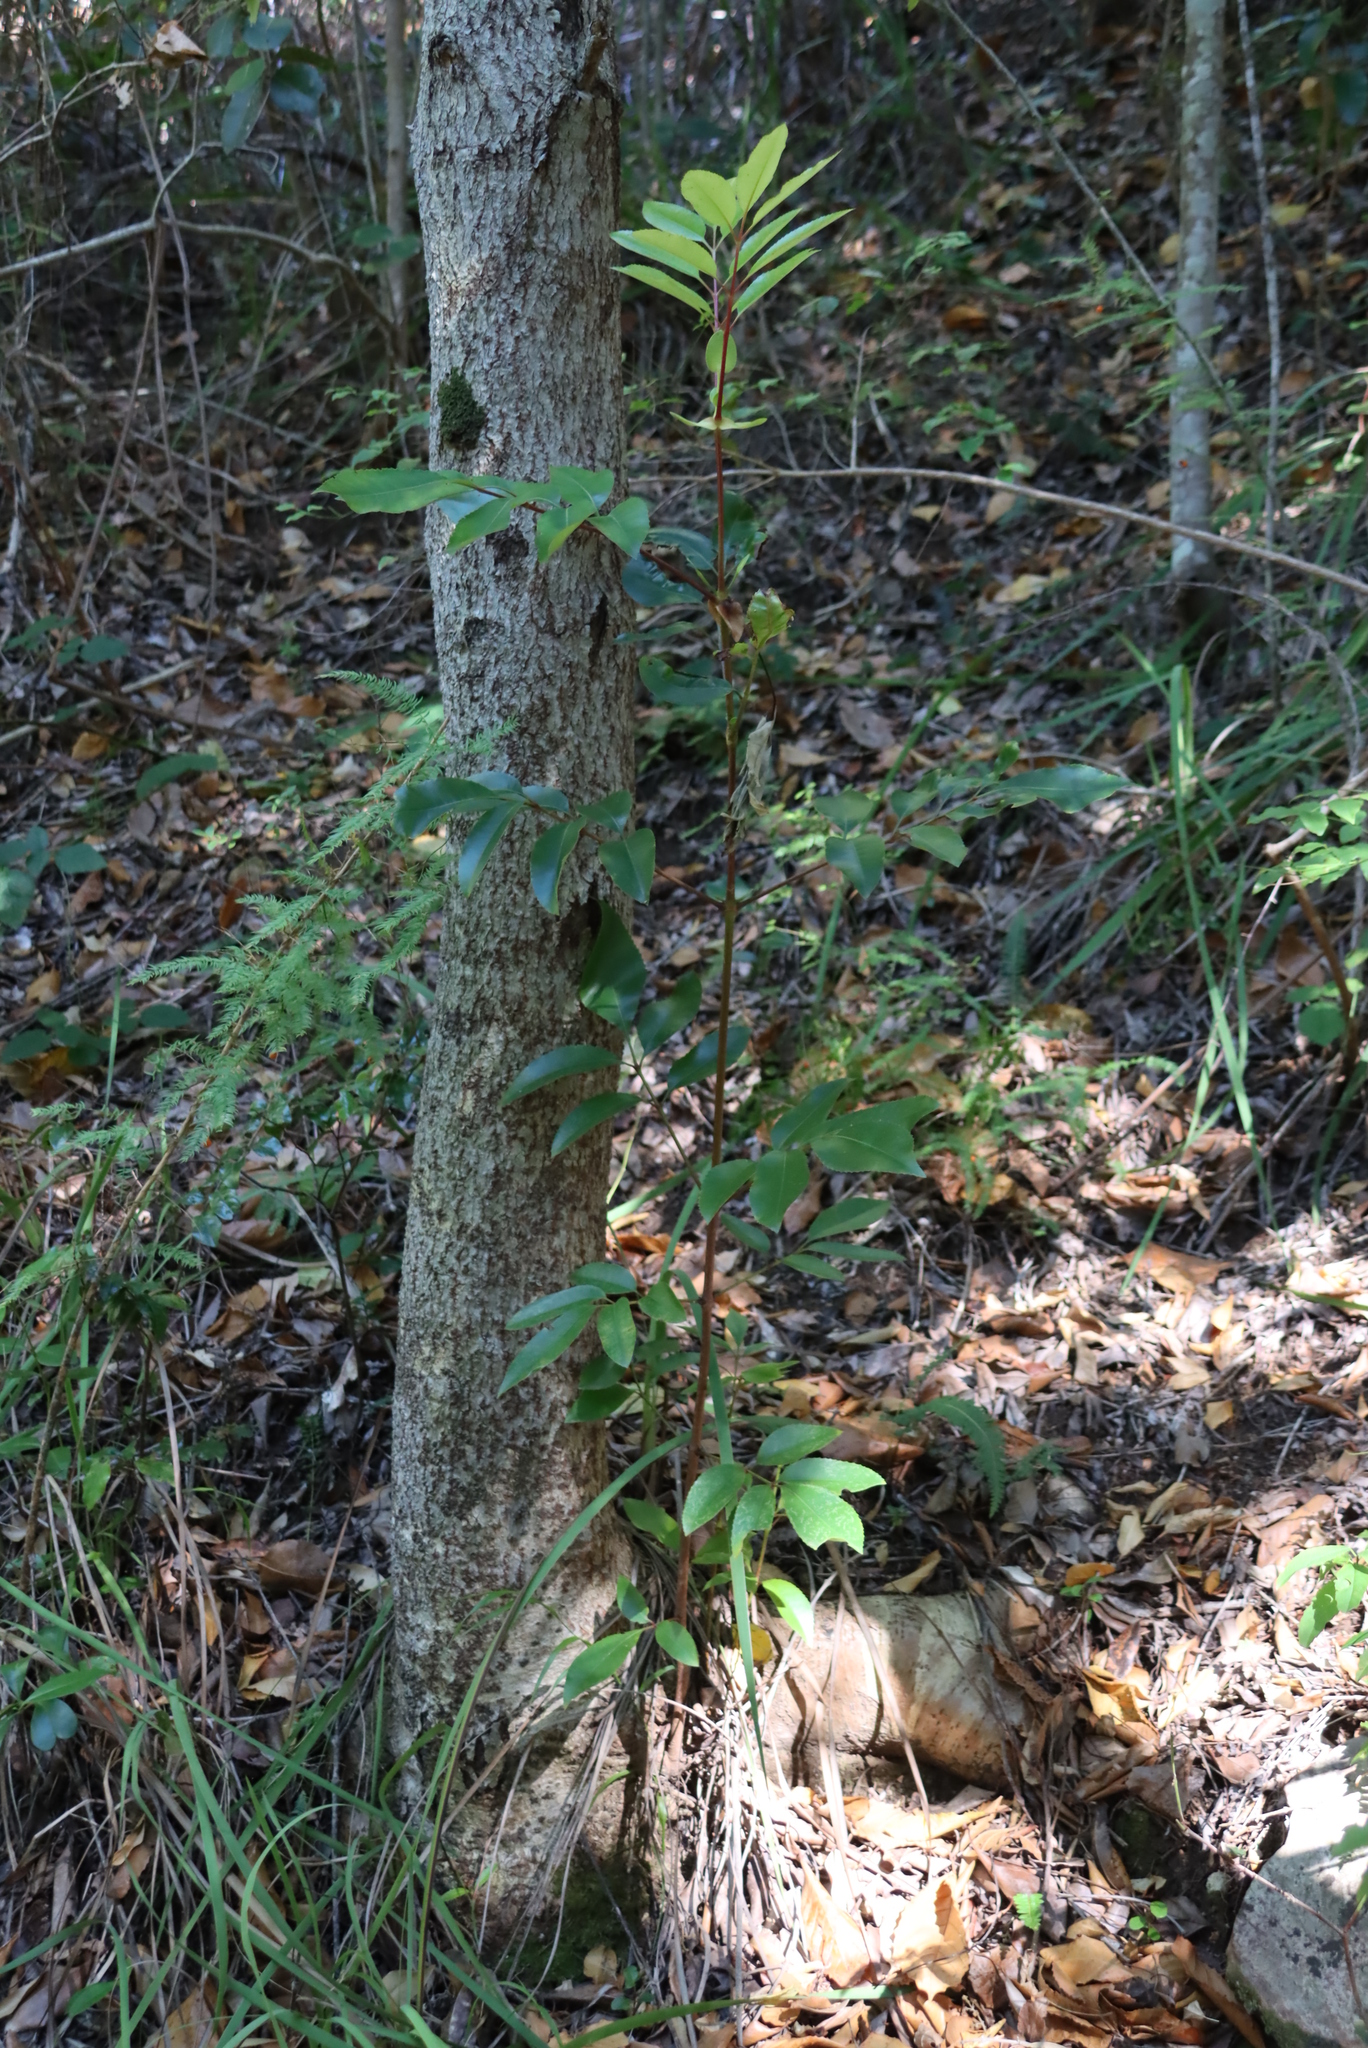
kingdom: Plantae
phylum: Tracheophyta
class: Magnoliopsida
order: Oxalidales
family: Cunoniaceae
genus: Cunonia
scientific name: Cunonia capensis
